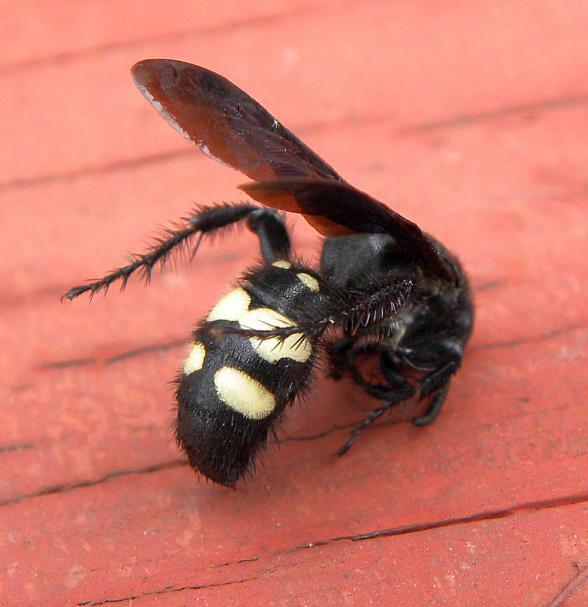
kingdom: Animalia
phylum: Arthropoda
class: Insecta
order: Hymenoptera
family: Scoliidae
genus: Scolia
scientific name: Scolia bicincta
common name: Double-banded scoliid wasp
